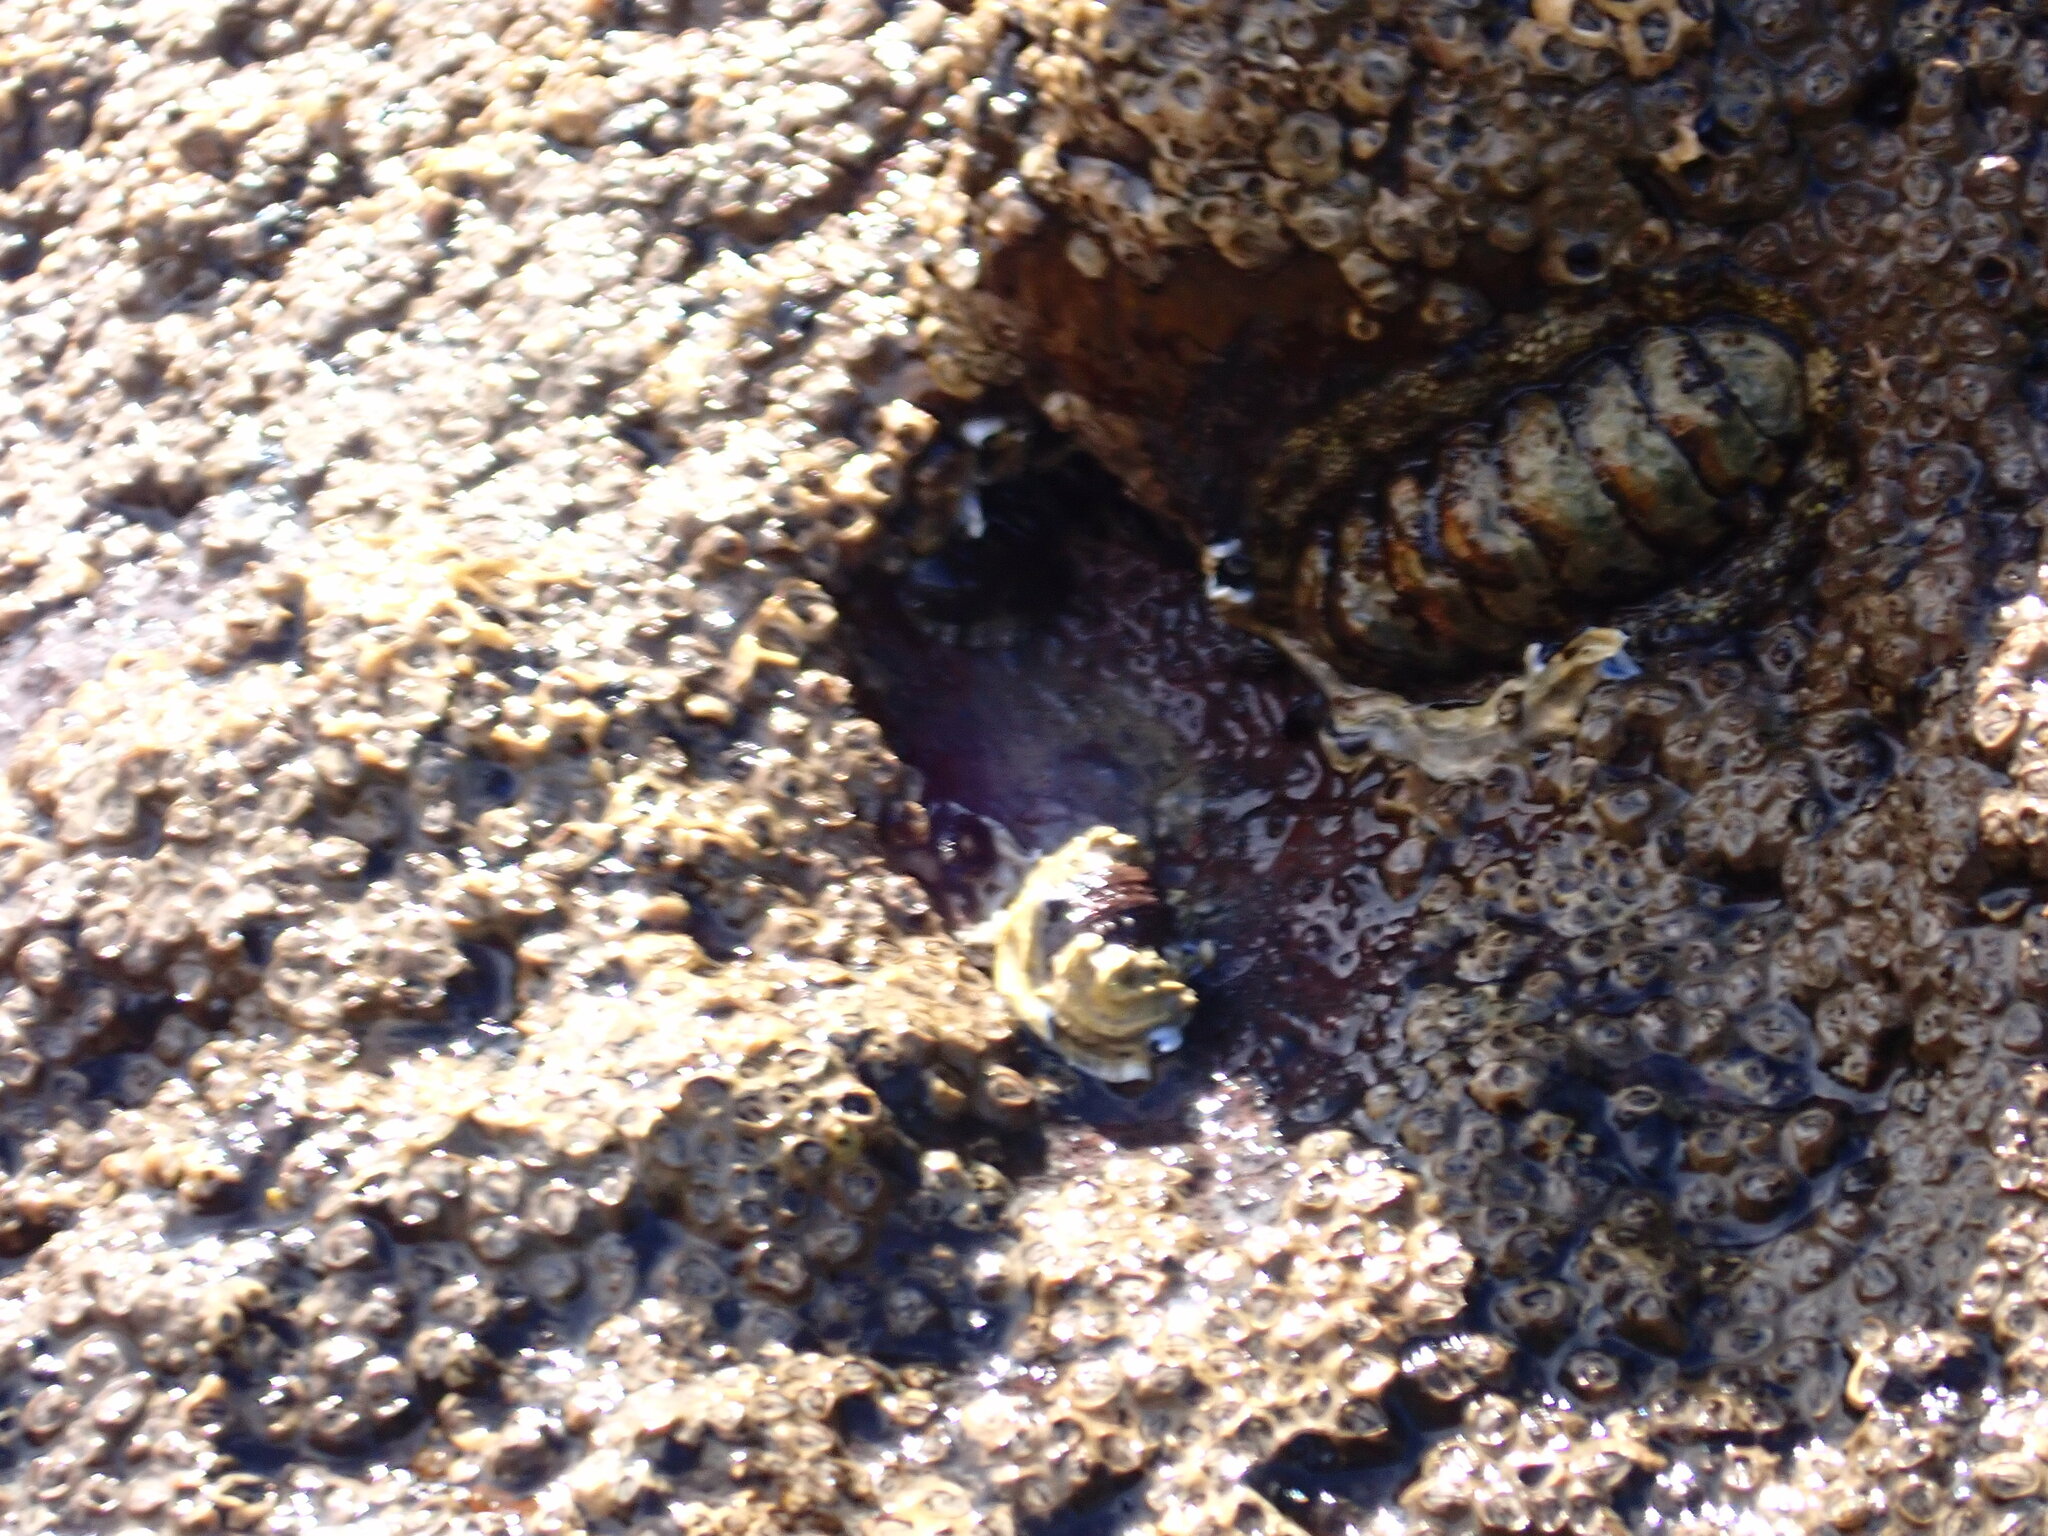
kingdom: Animalia
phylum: Mollusca
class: Polyplacophora
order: Chitonida
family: Chitonidae
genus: Sypharochiton
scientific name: Sypharochiton pelliserpentis
